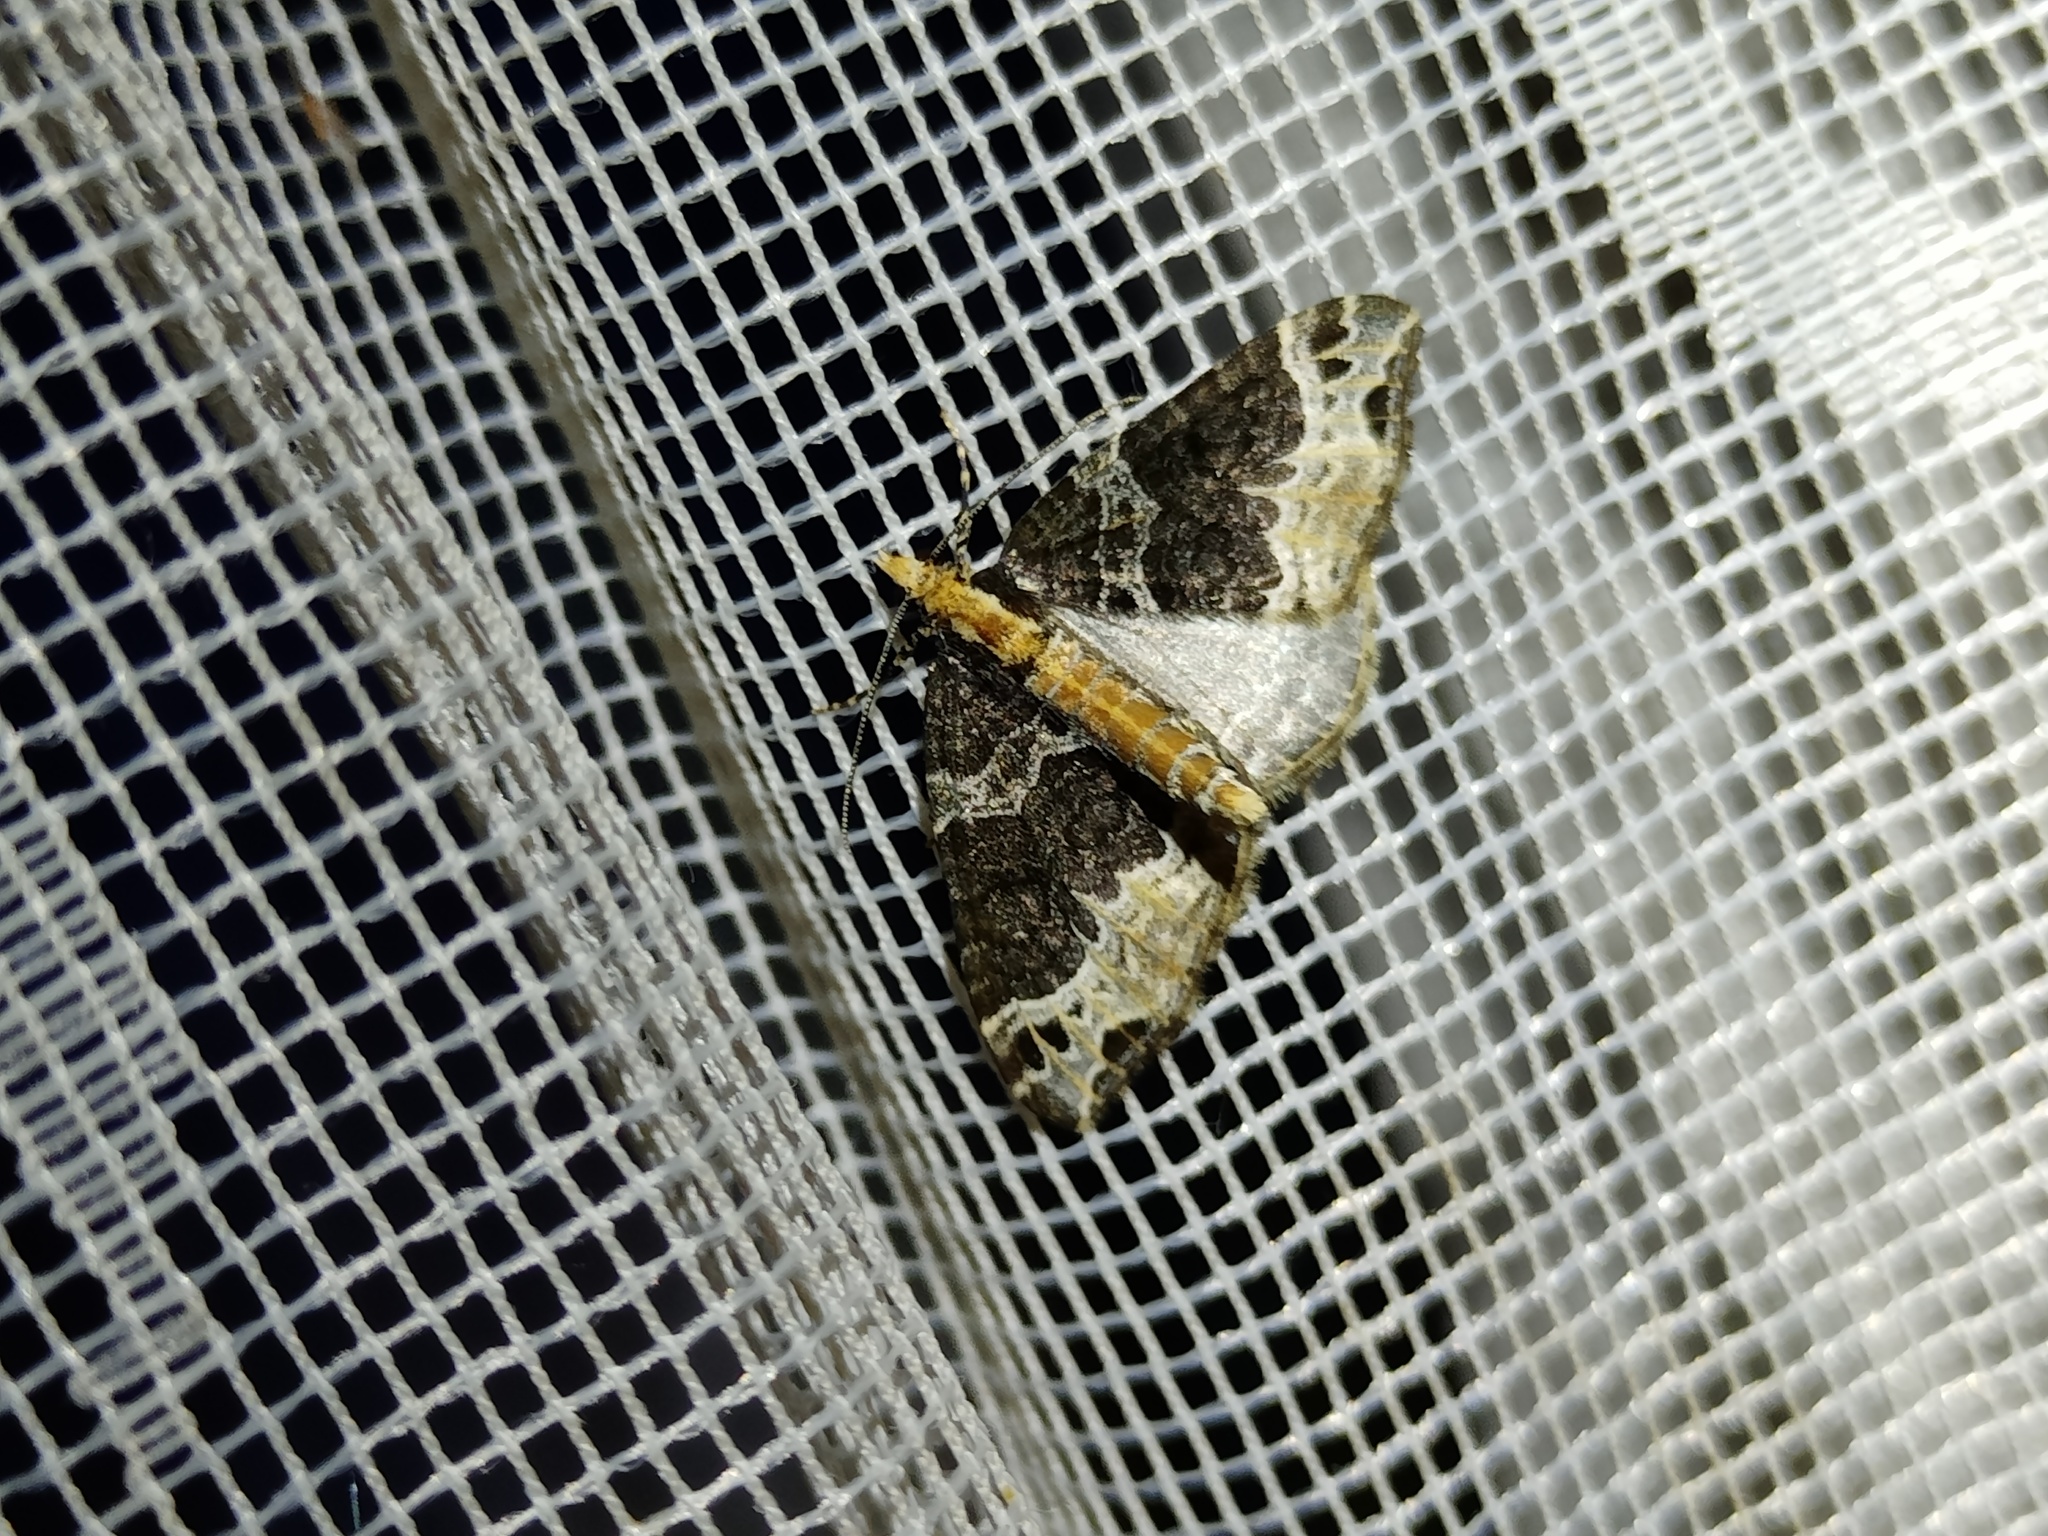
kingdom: Animalia
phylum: Arthropoda
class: Insecta
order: Lepidoptera
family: Geometridae
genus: Ecliptopera
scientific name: Ecliptopera capitata
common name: Yellow-headed phoenix
